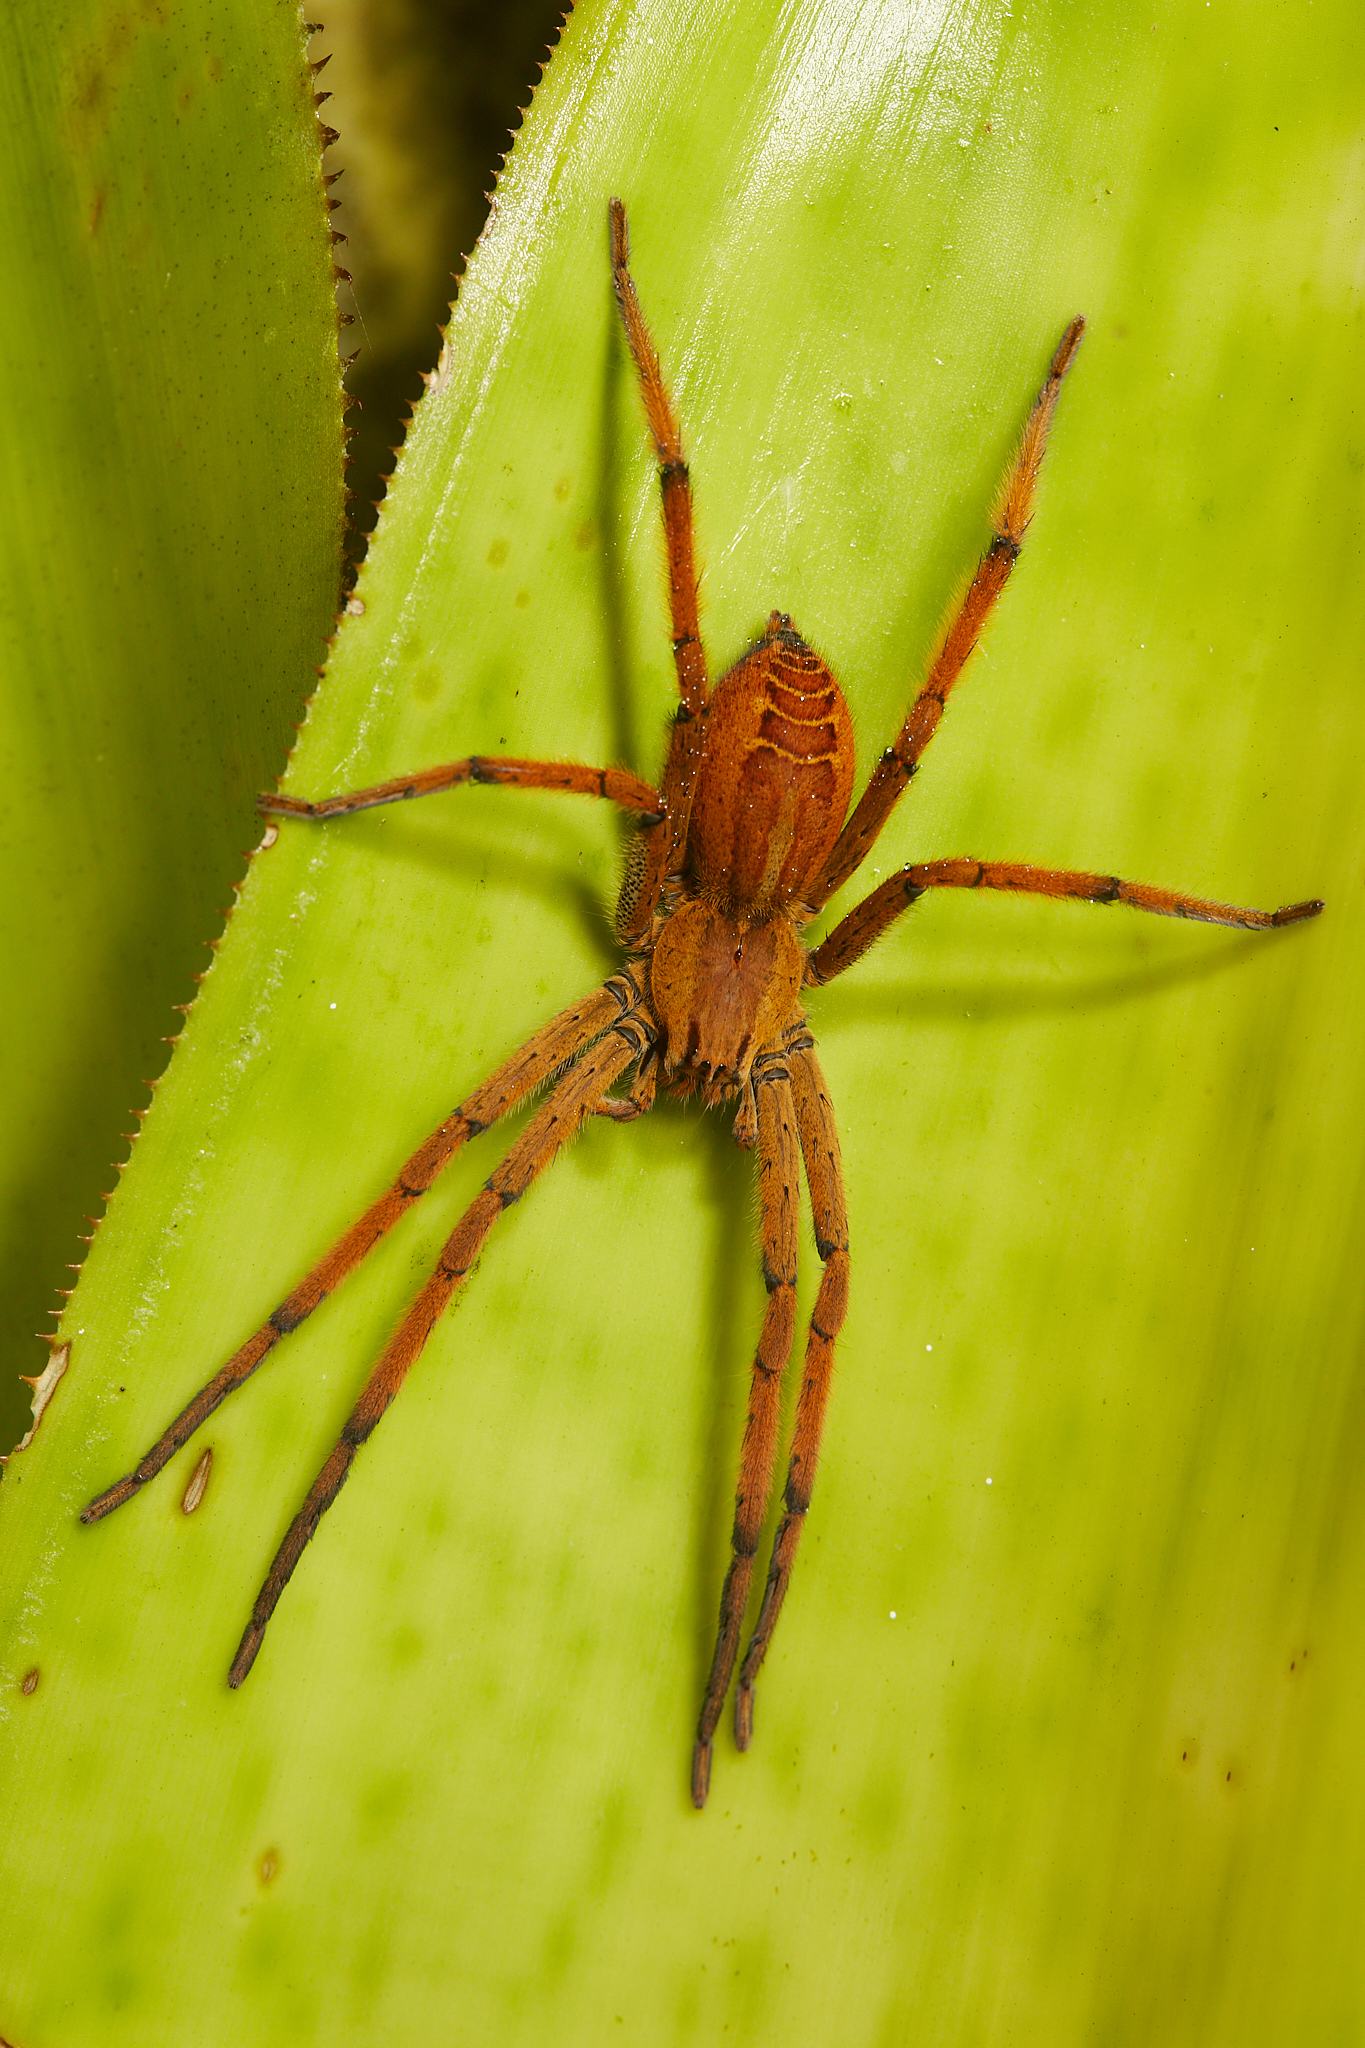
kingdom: Animalia
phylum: Arthropoda
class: Arachnida
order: Araneae
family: Trechaleidae
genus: Cupiennius
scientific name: Cupiennius getazi
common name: Wandering spiders
